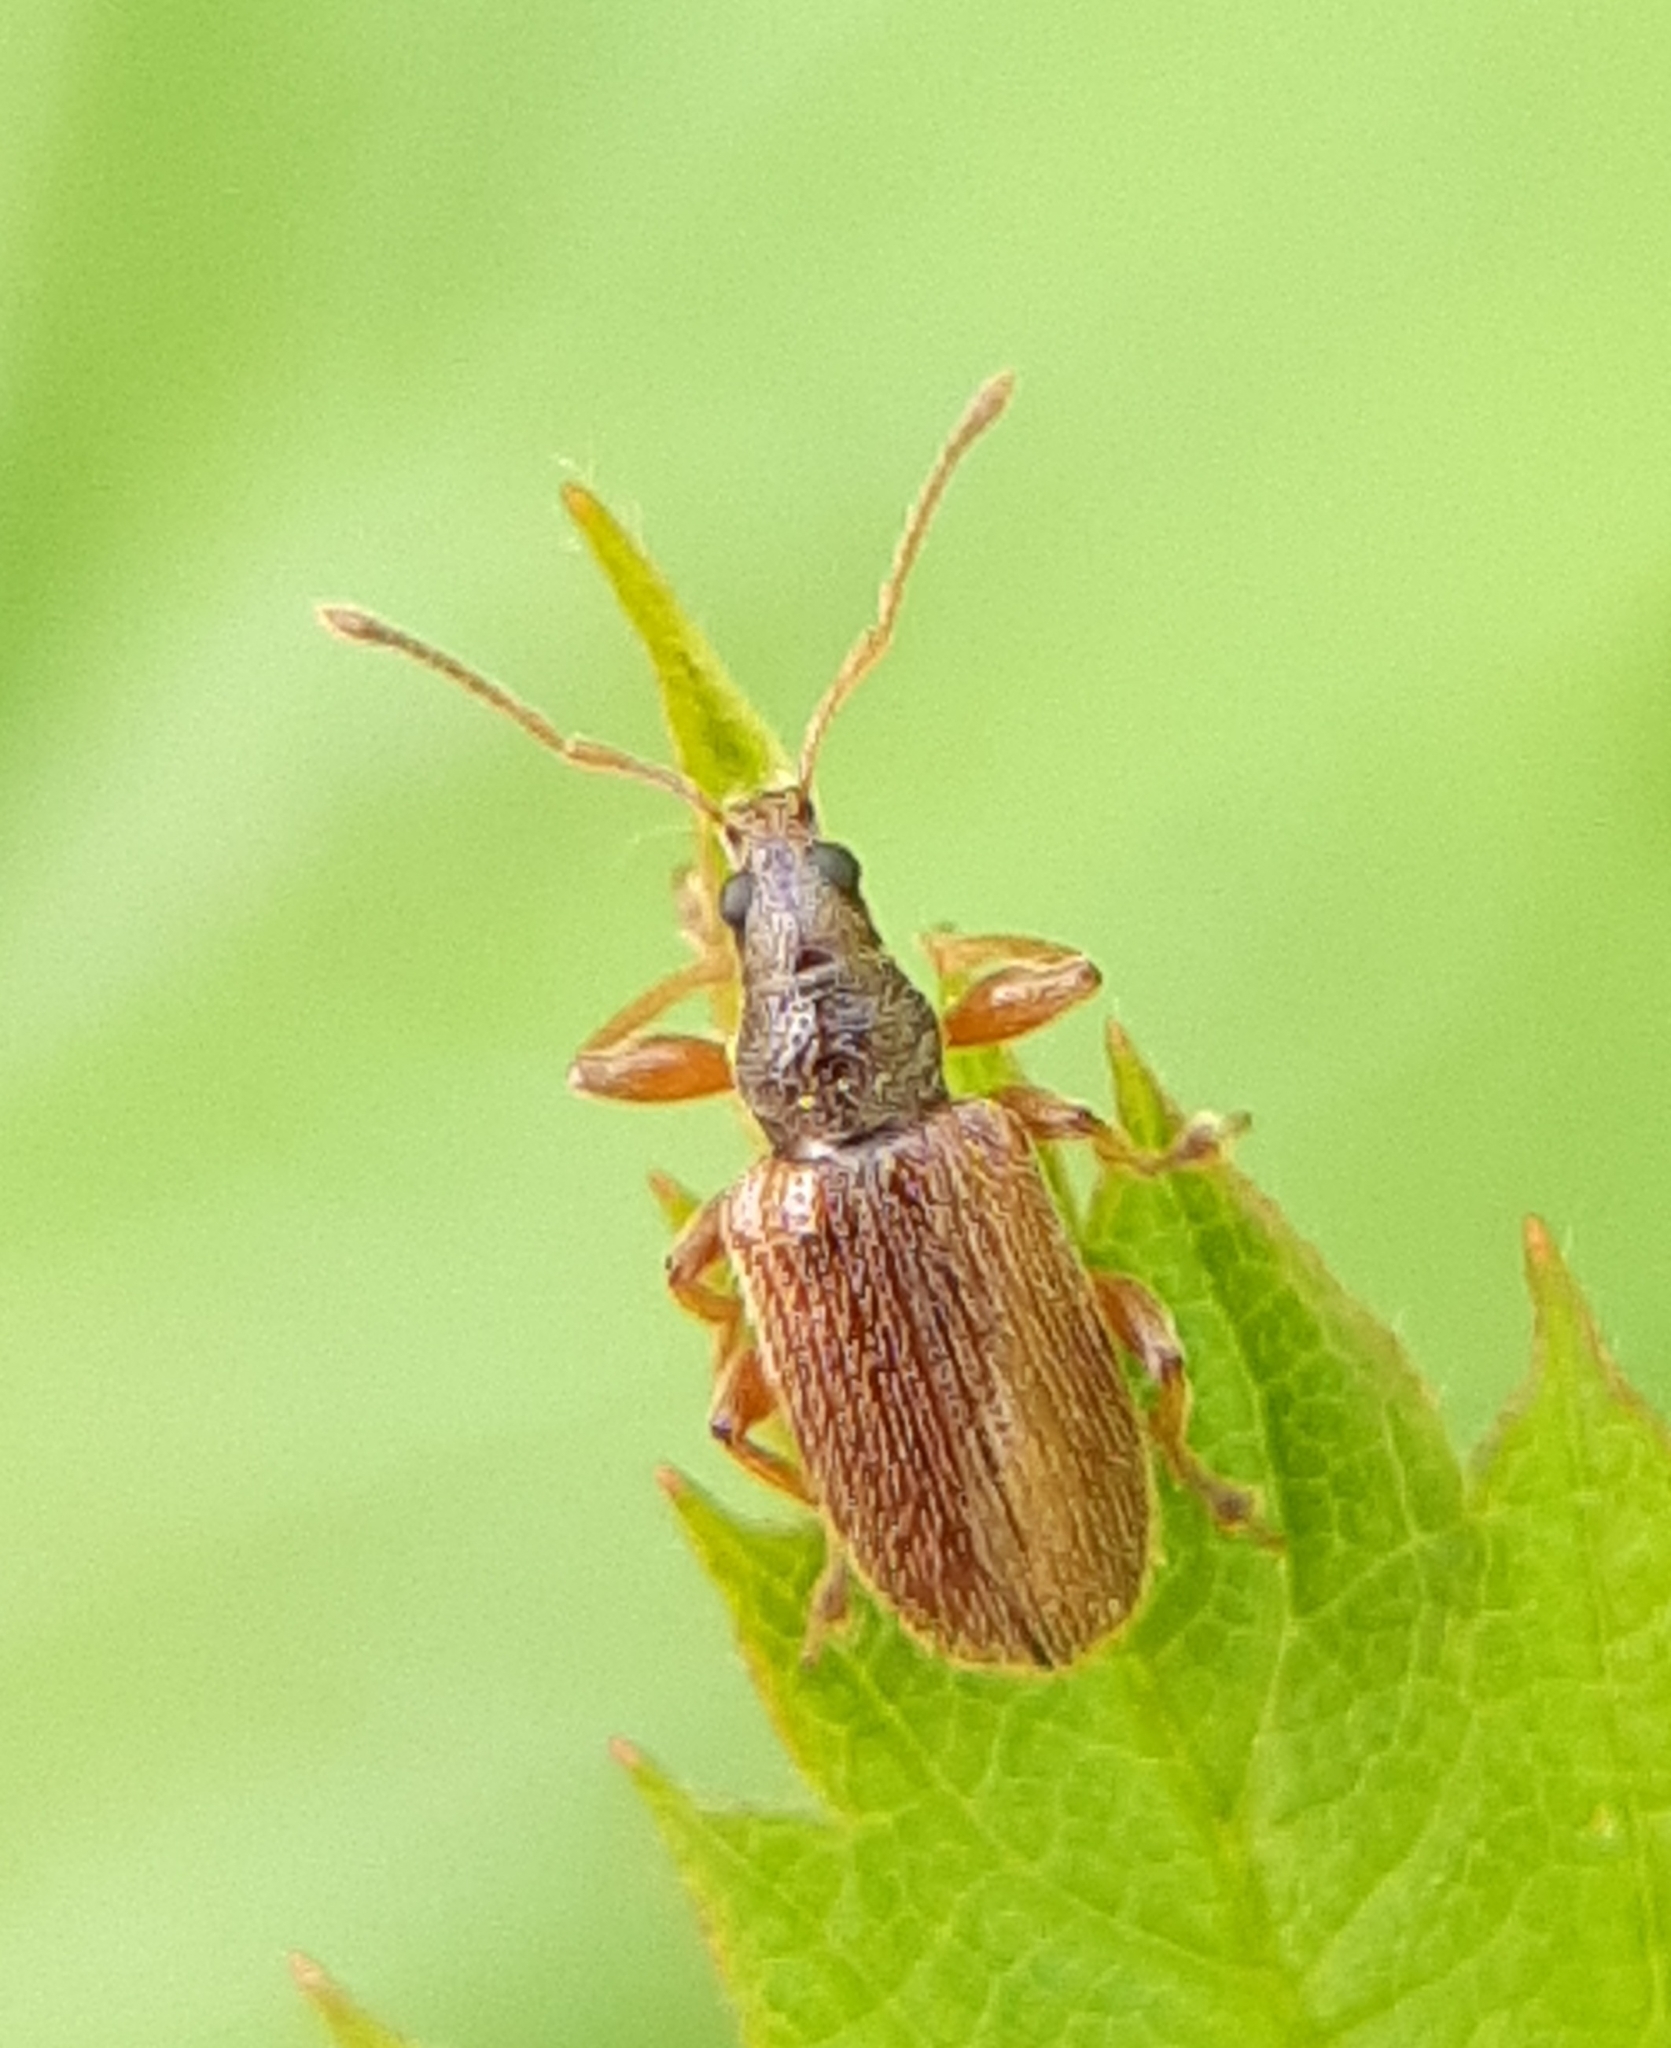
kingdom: Animalia
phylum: Arthropoda
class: Insecta
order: Coleoptera
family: Curculionidae
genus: Phyllobius
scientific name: Phyllobius oblongus
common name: Brown leaf weevil
